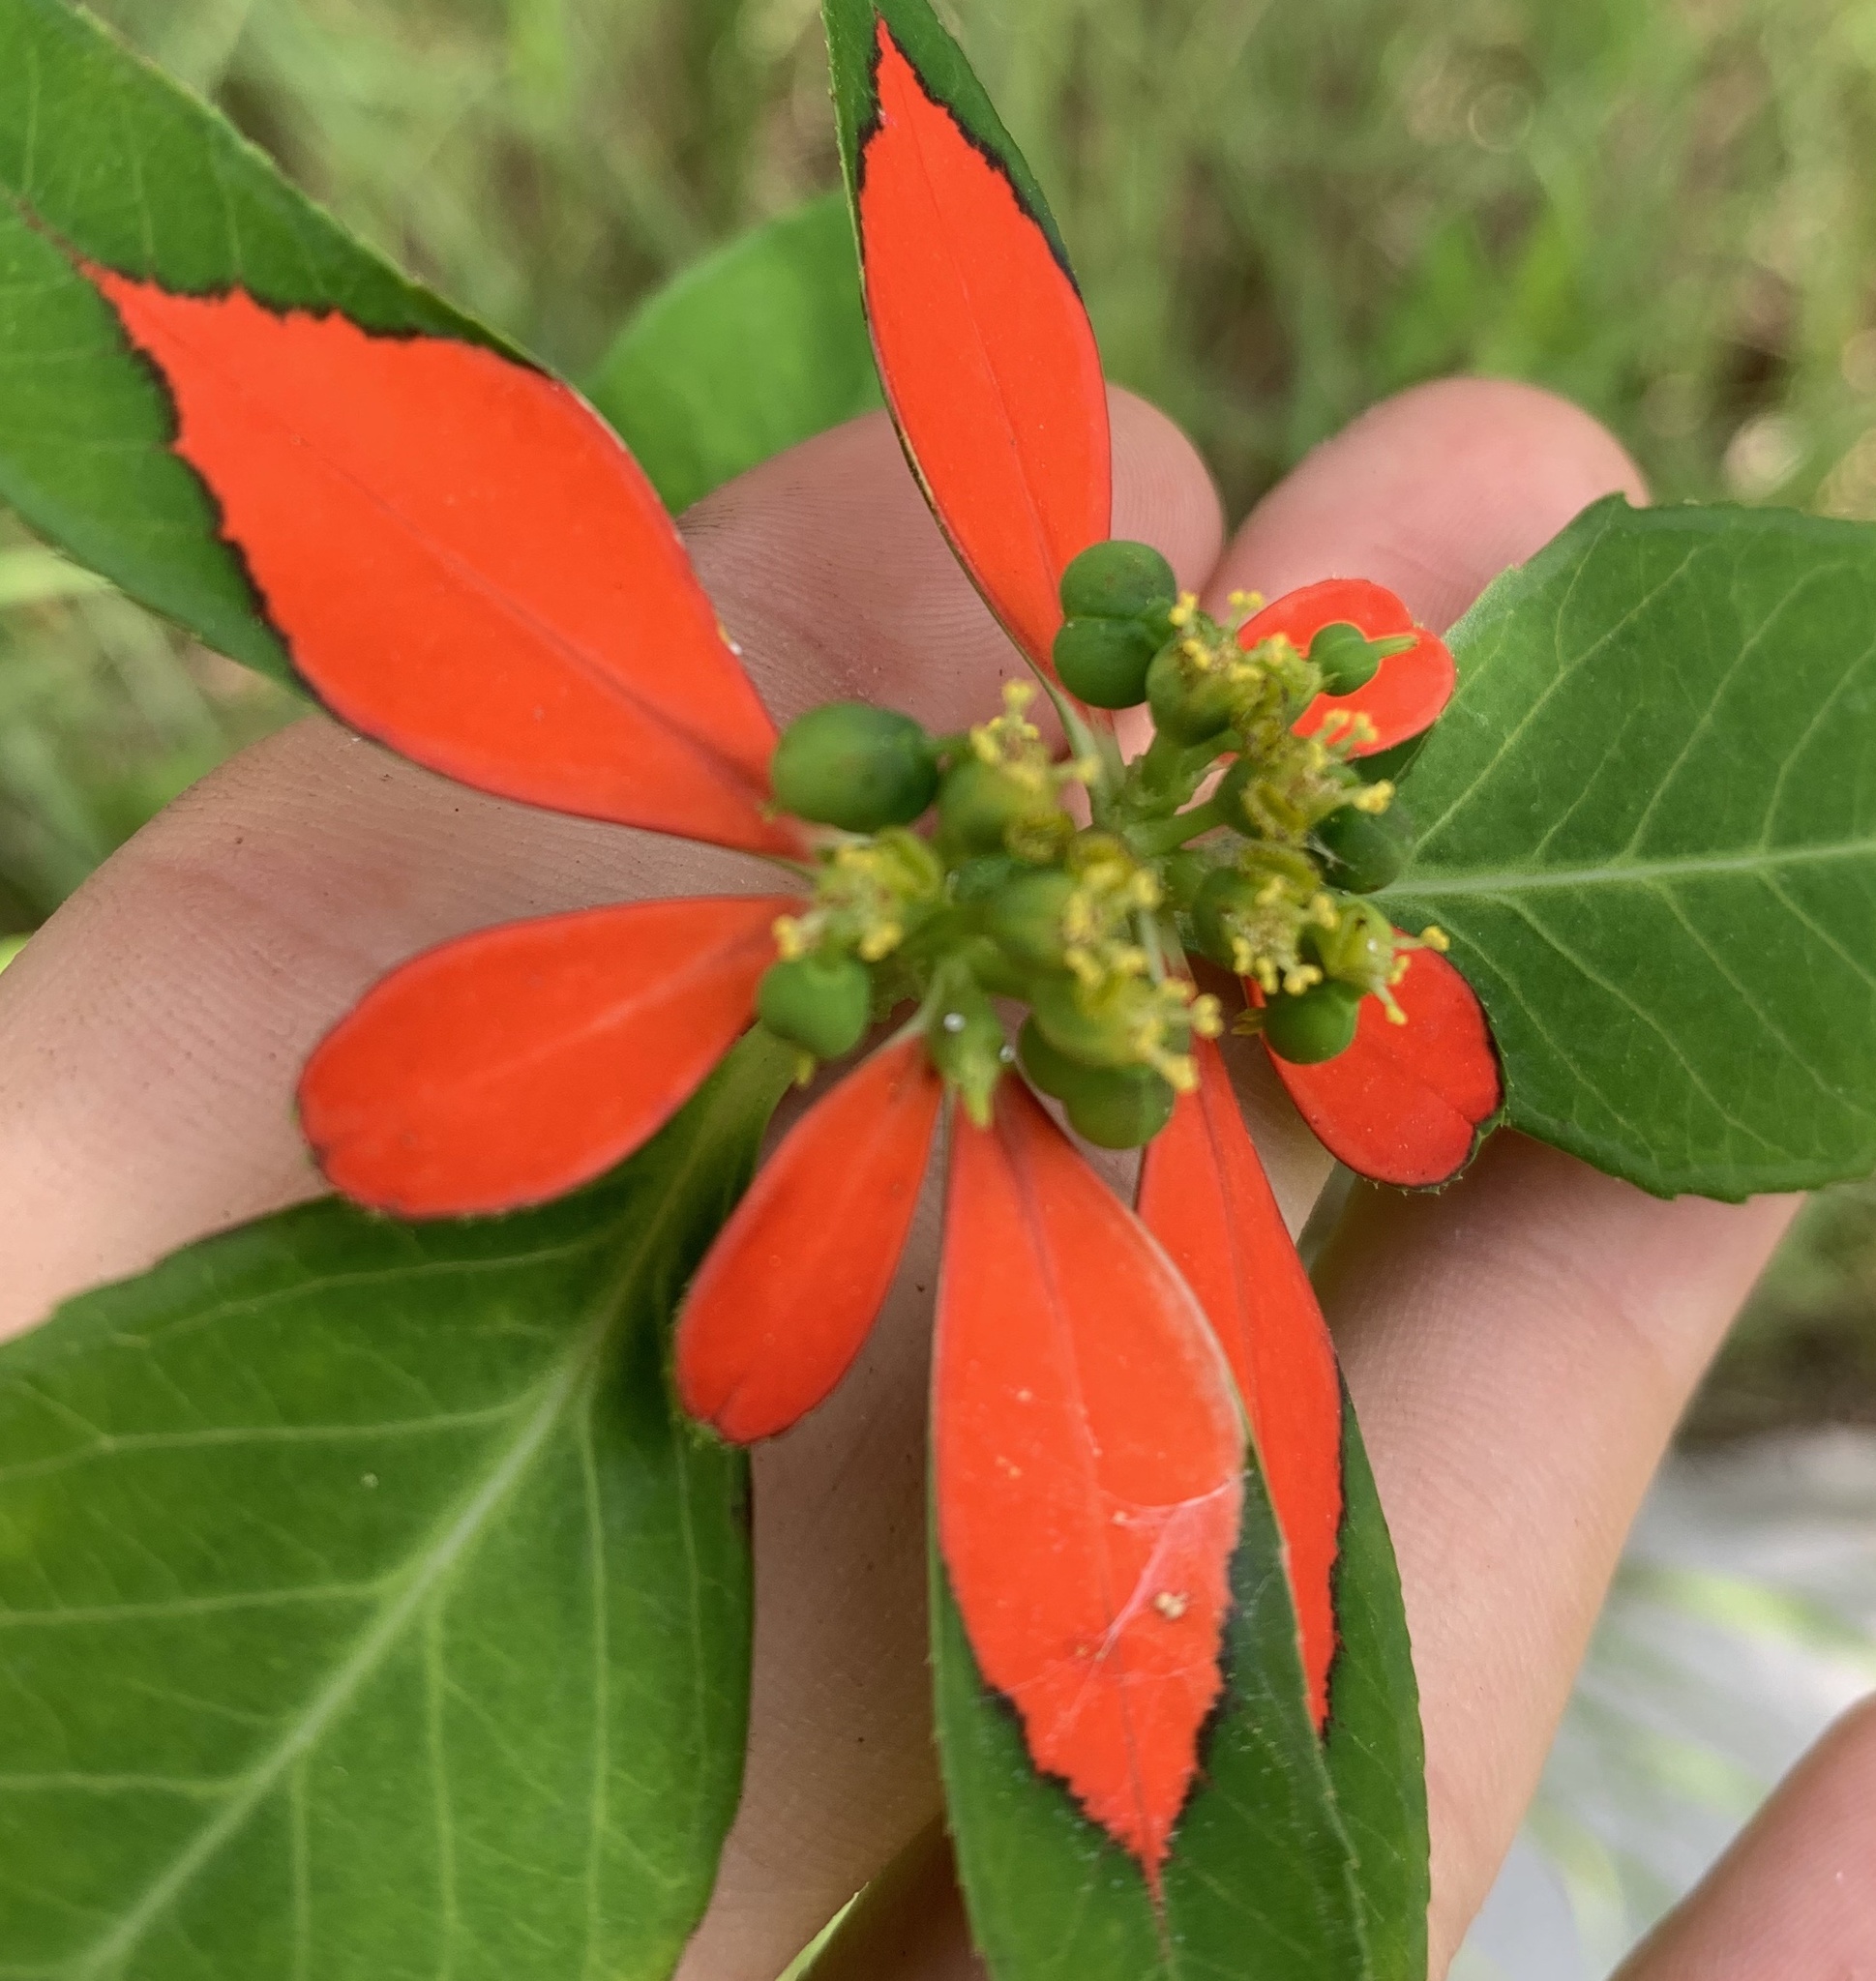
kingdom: Plantae
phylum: Tracheophyta
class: Magnoliopsida
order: Malpighiales
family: Euphorbiaceae
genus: Euphorbia
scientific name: Euphorbia heterophylla
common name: Mexican fireplant
